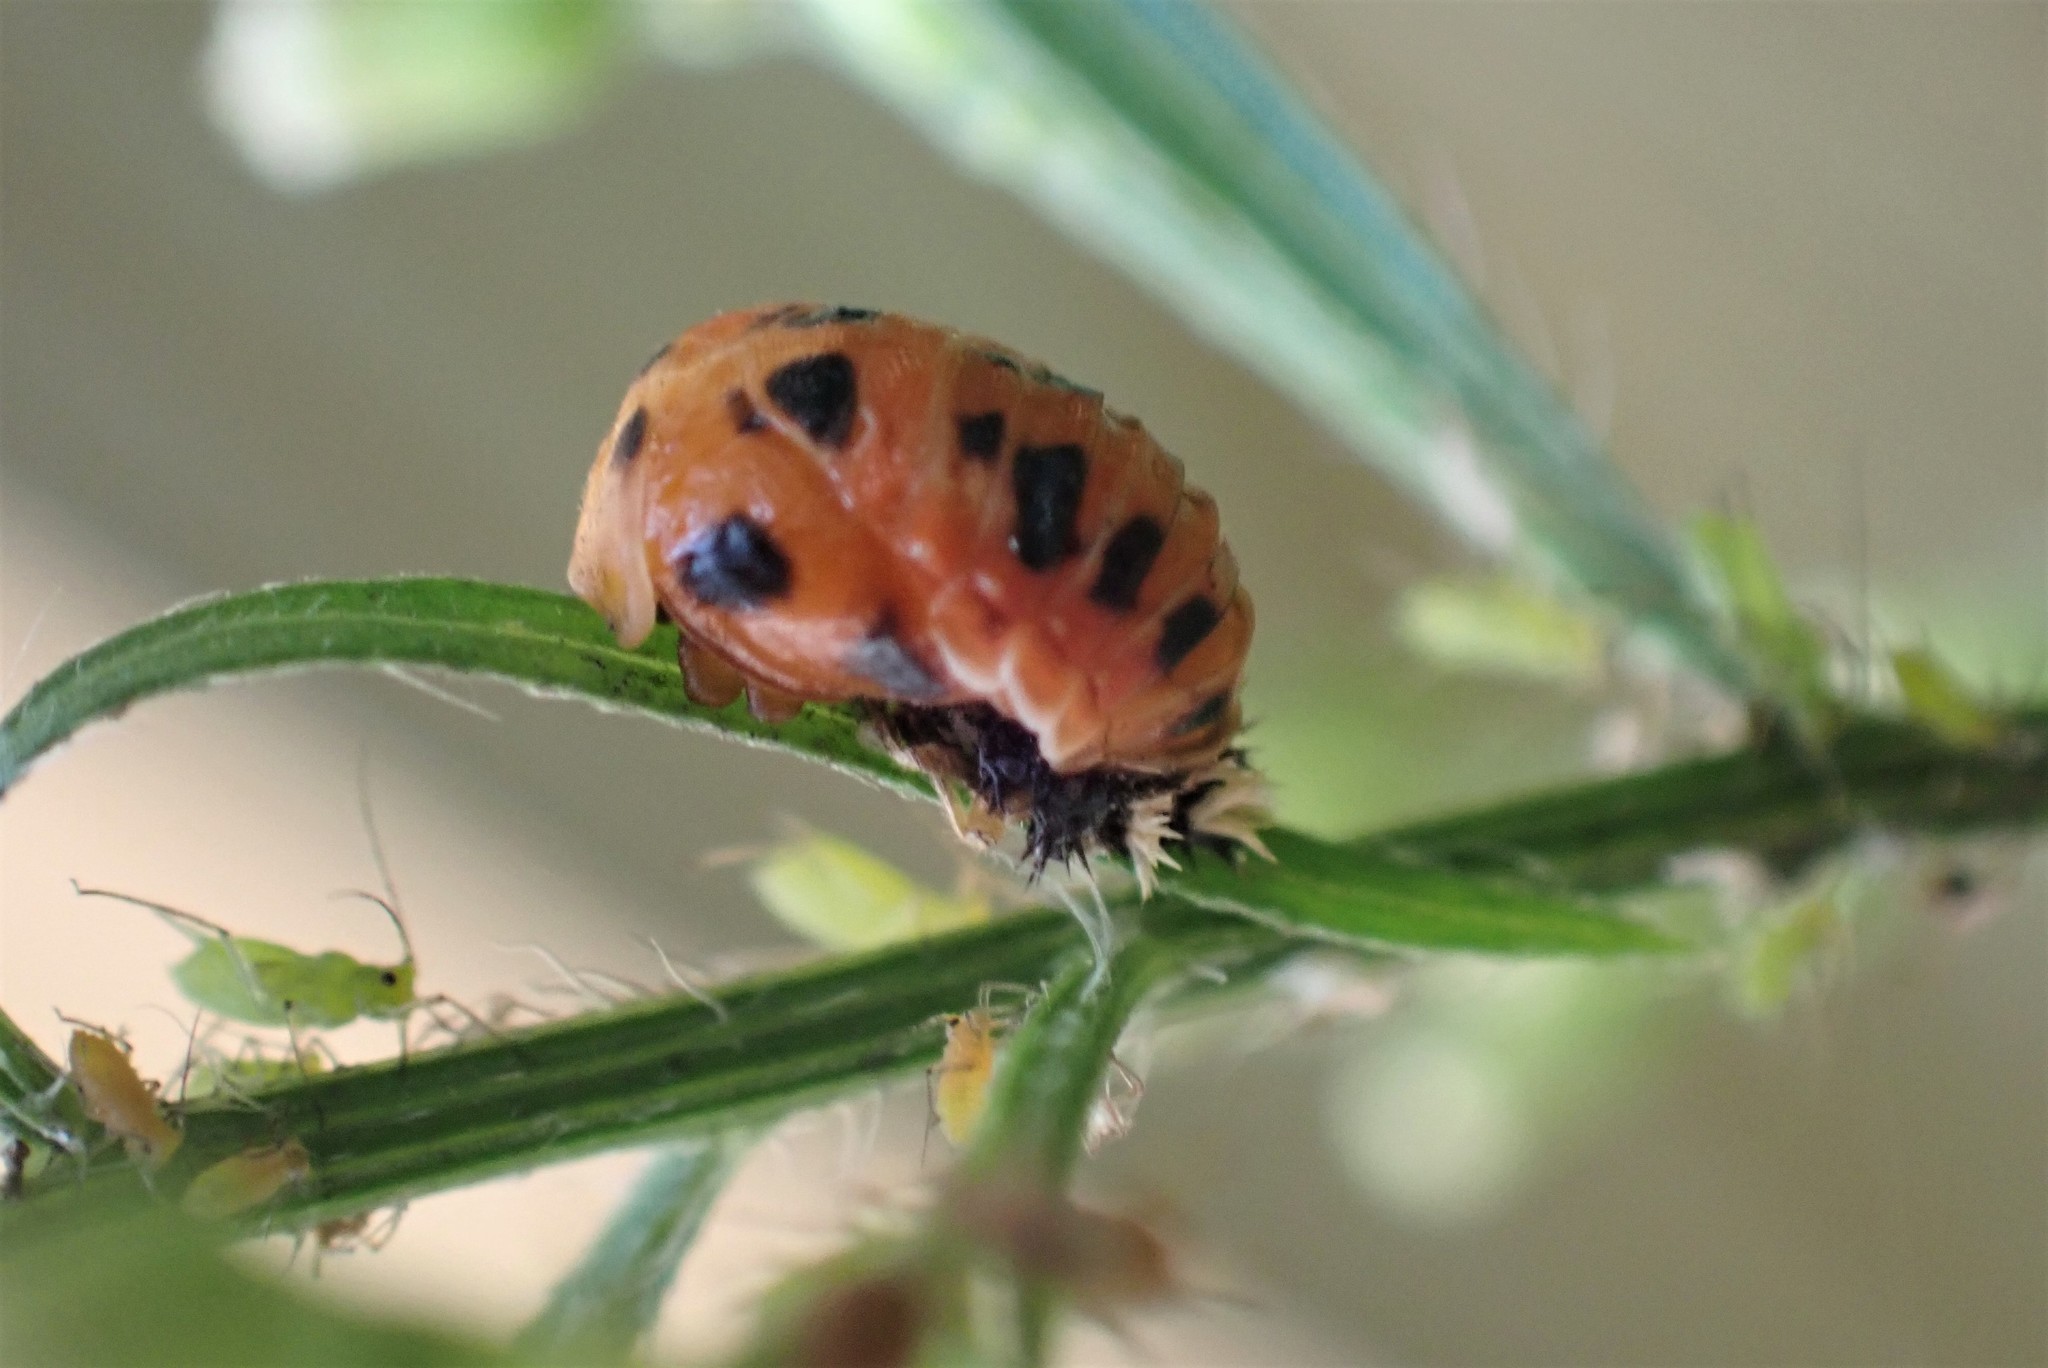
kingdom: Animalia
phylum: Arthropoda
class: Insecta
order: Coleoptera
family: Coccinellidae
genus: Harmonia
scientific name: Harmonia axyridis
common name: Harlequin ladybird
